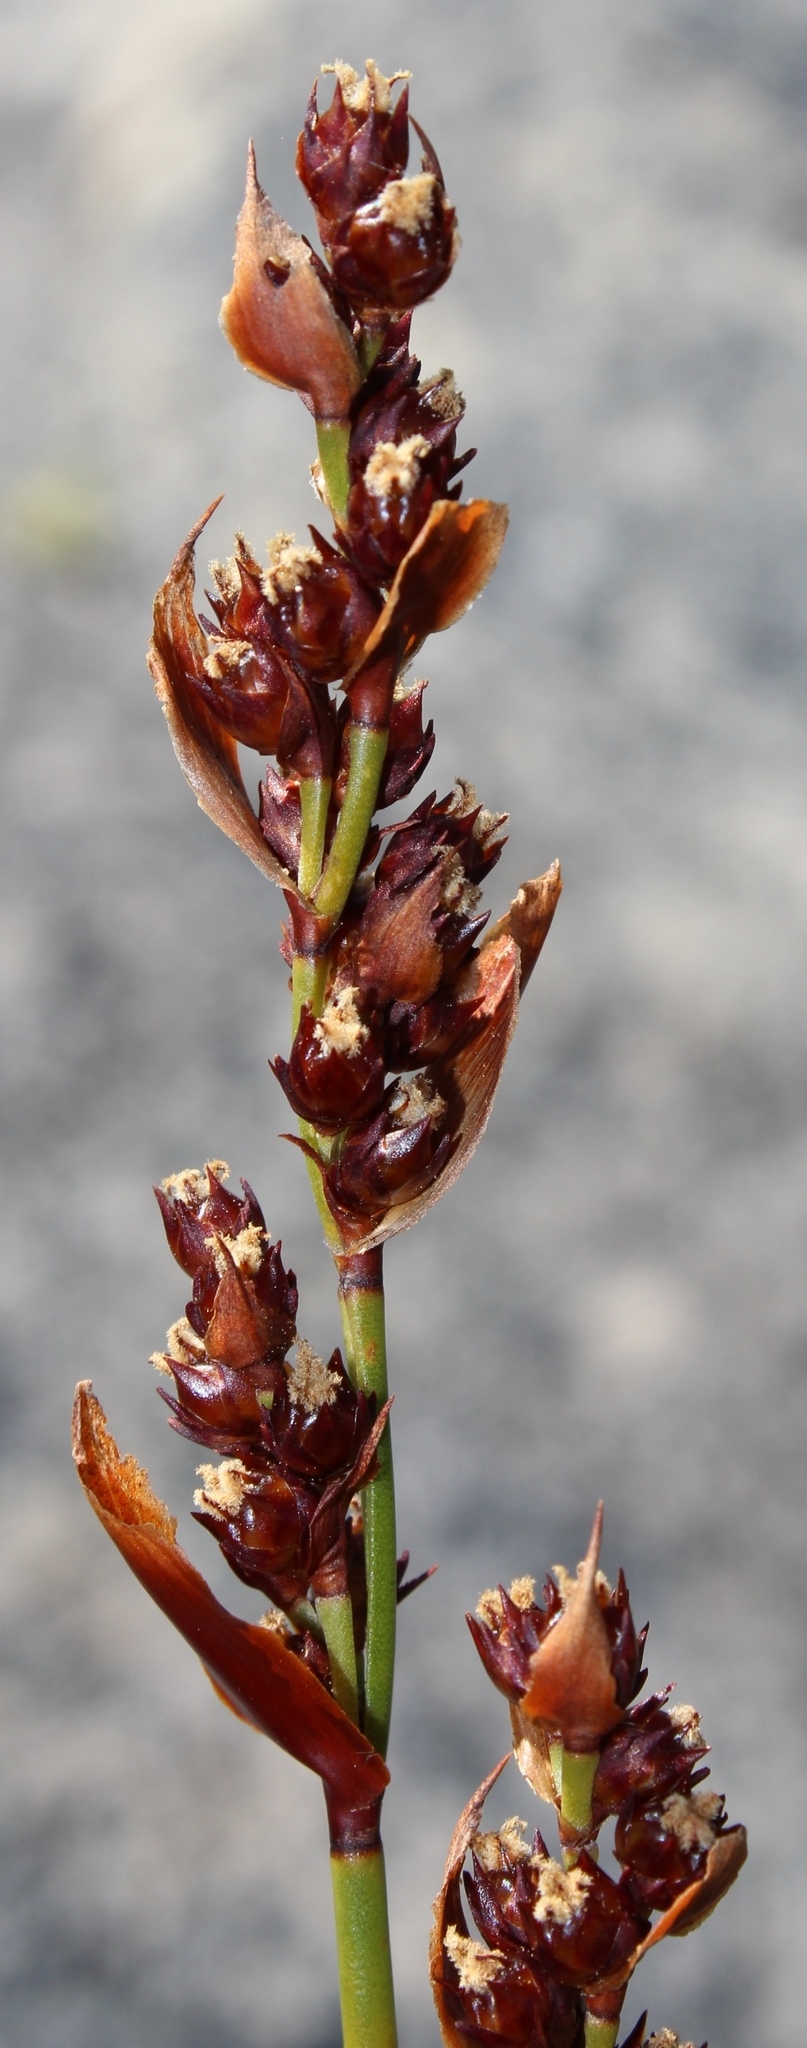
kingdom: Plantae
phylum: Tracheophyta
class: Liliopsida
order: Poales
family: Restionaceae
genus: Elegia
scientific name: Elegia ebracteata
